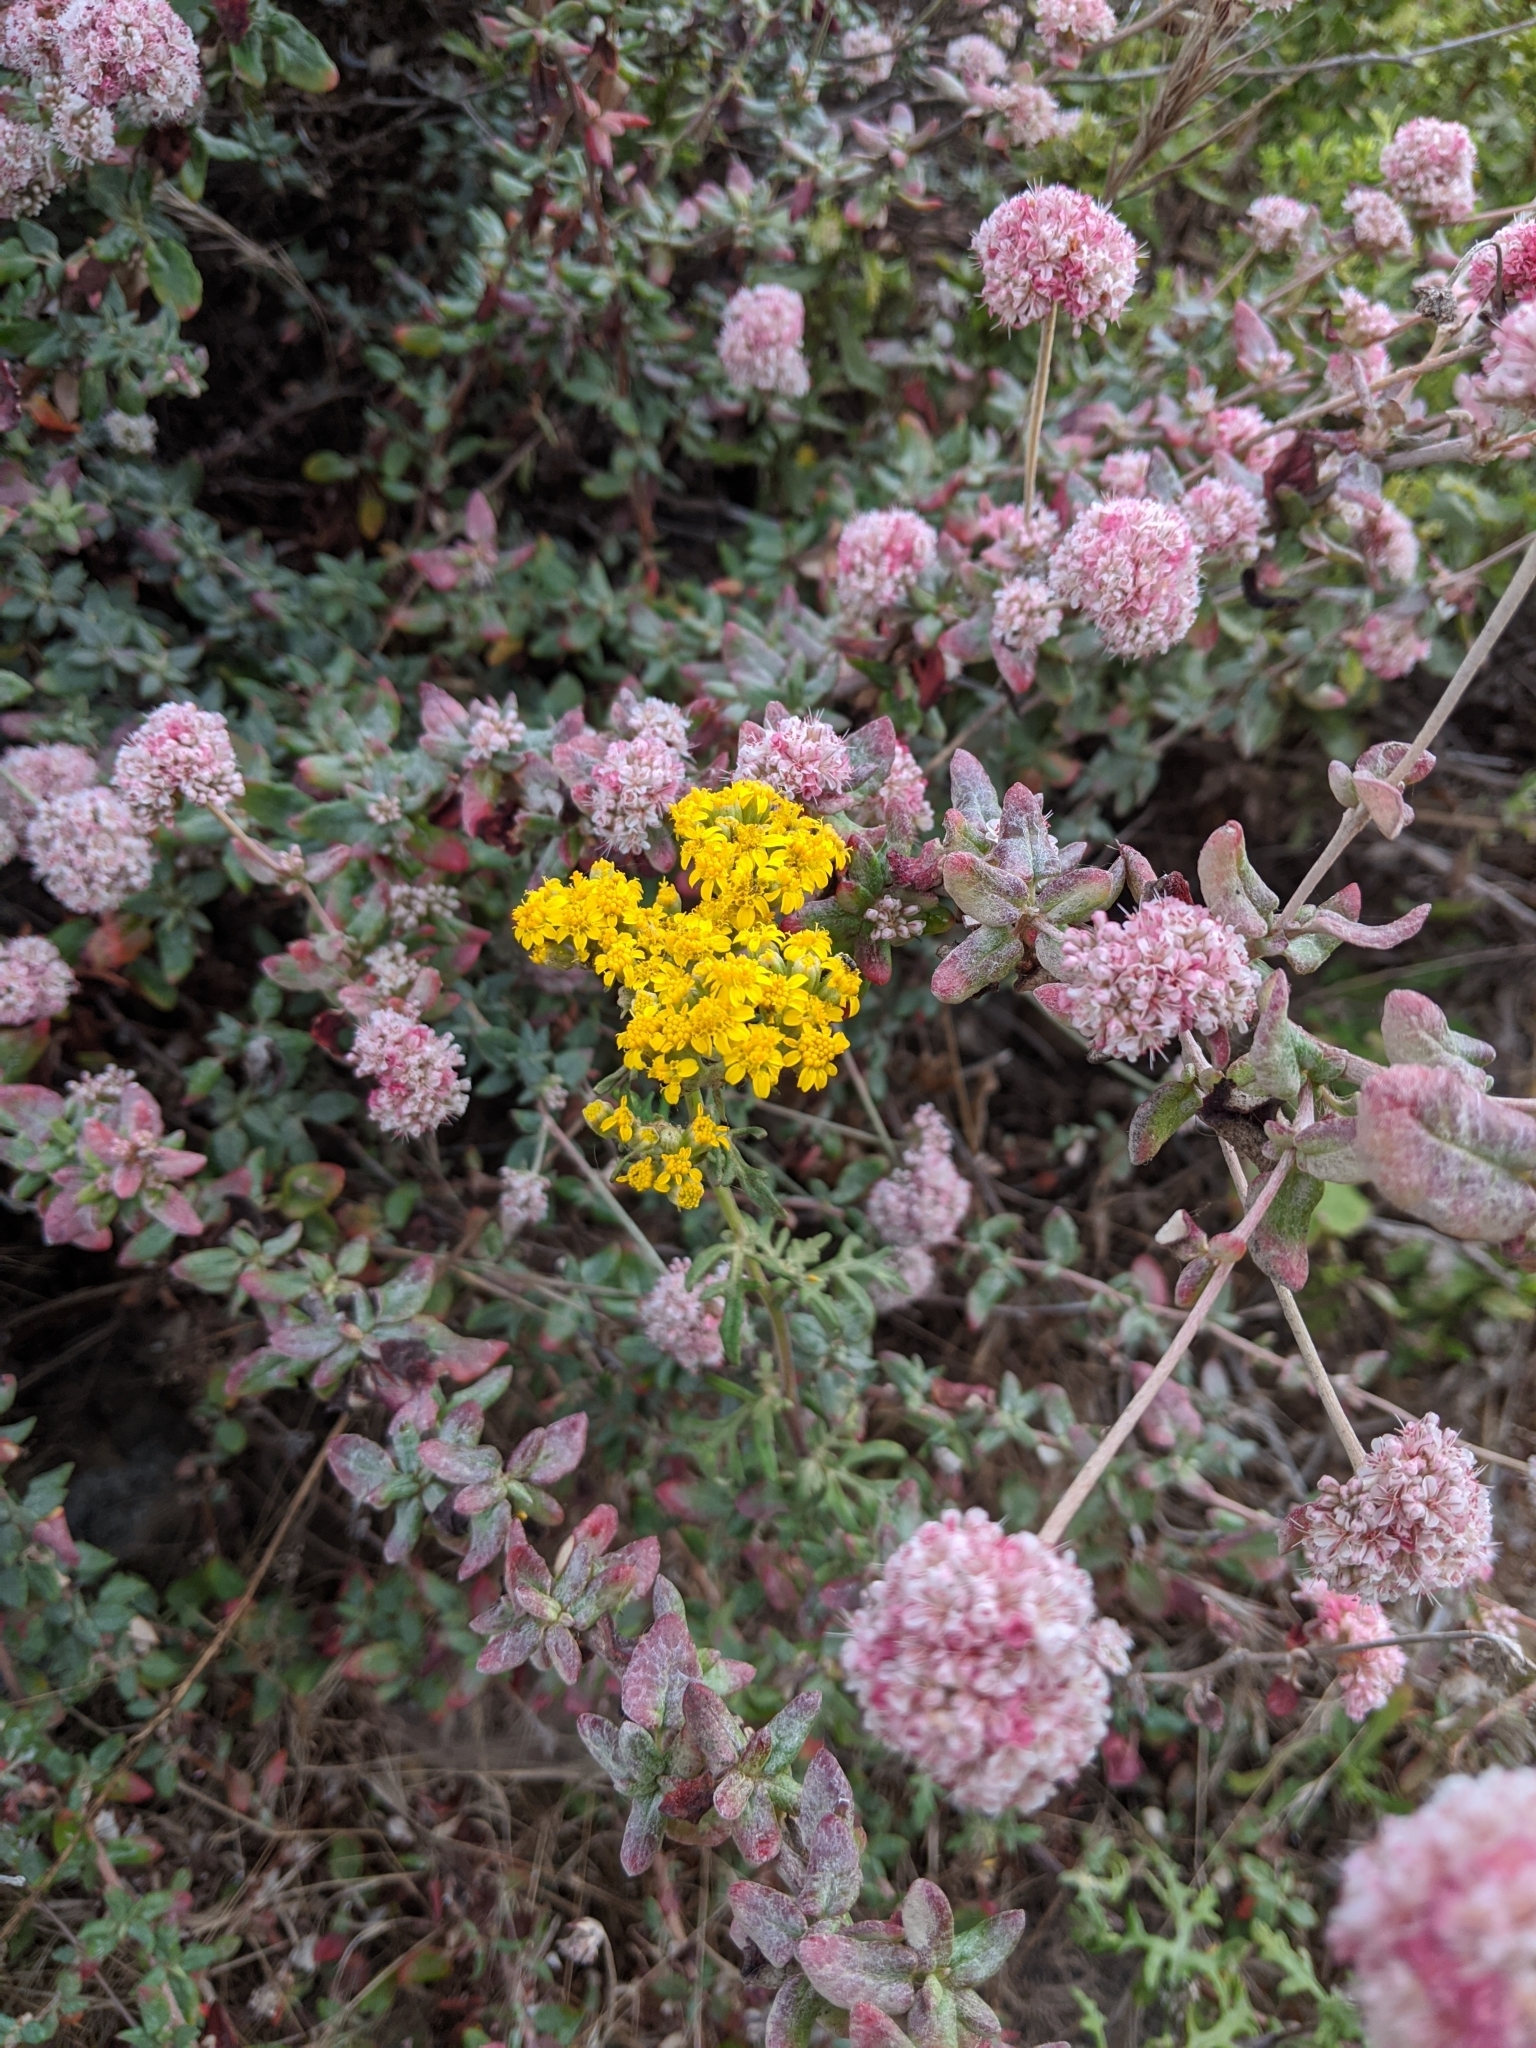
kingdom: Plantae
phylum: Tracheophyta
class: Magnoliopsida
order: Asterales
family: Asteraceae
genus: Eriophyllum
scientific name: Eriophyllum staechadifolium
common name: Lizardtail
